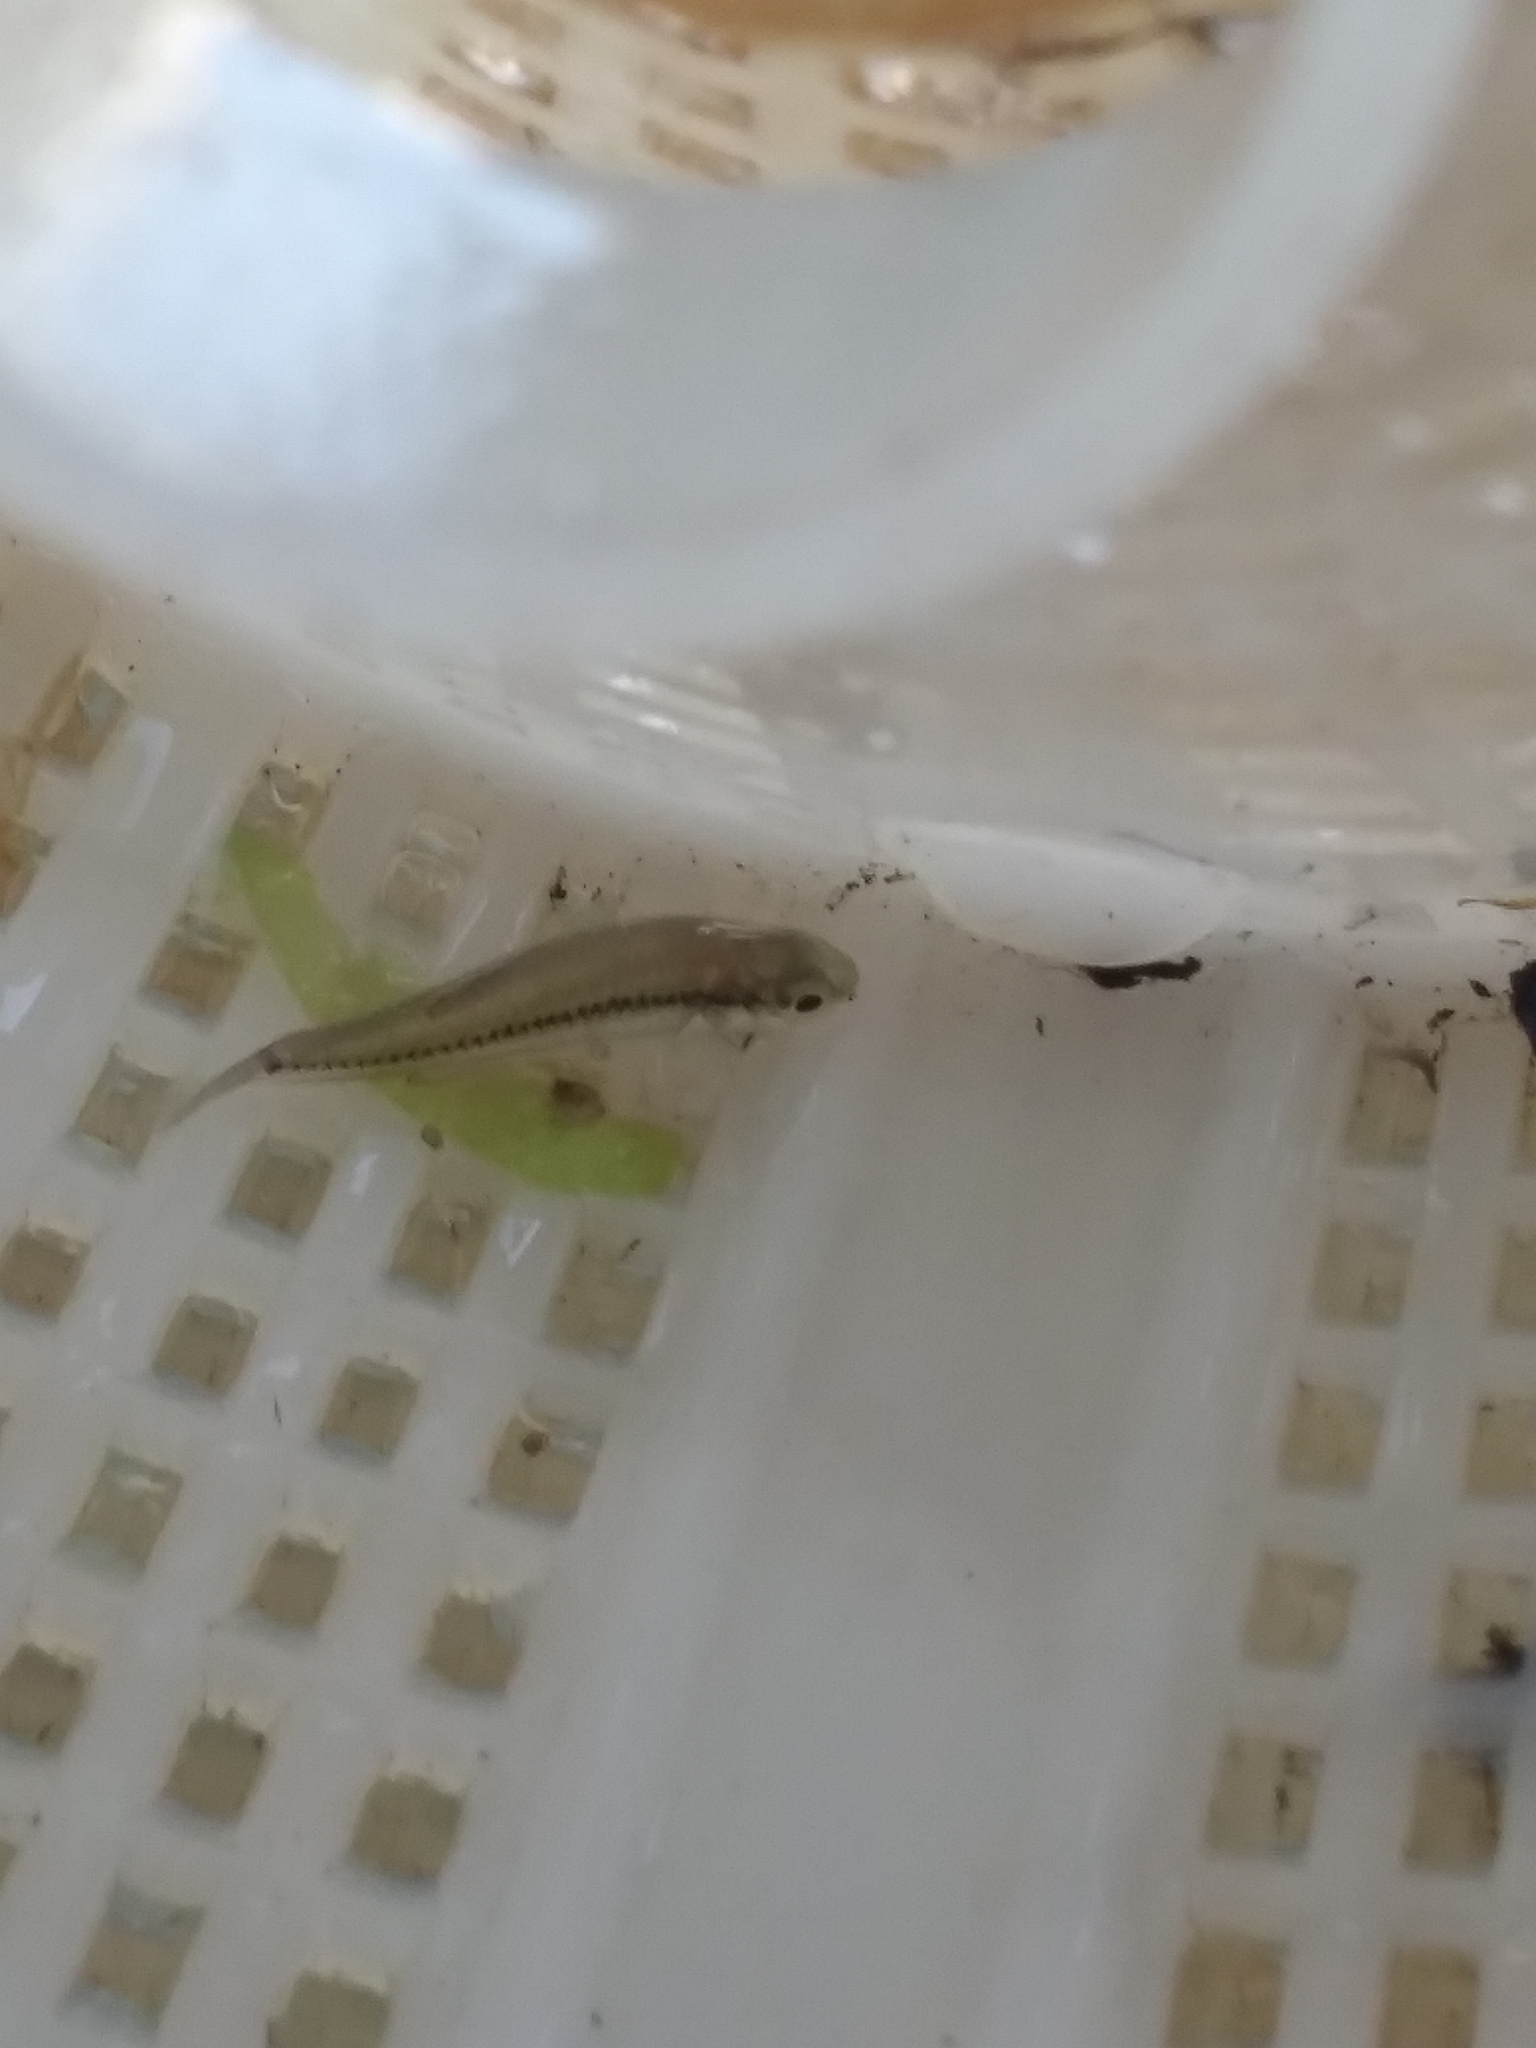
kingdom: Animalia
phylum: Chordata
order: Cyprinodontiformes
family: Fundulidae
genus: Lucania
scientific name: Lucania goodei
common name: Bluefin killifish
